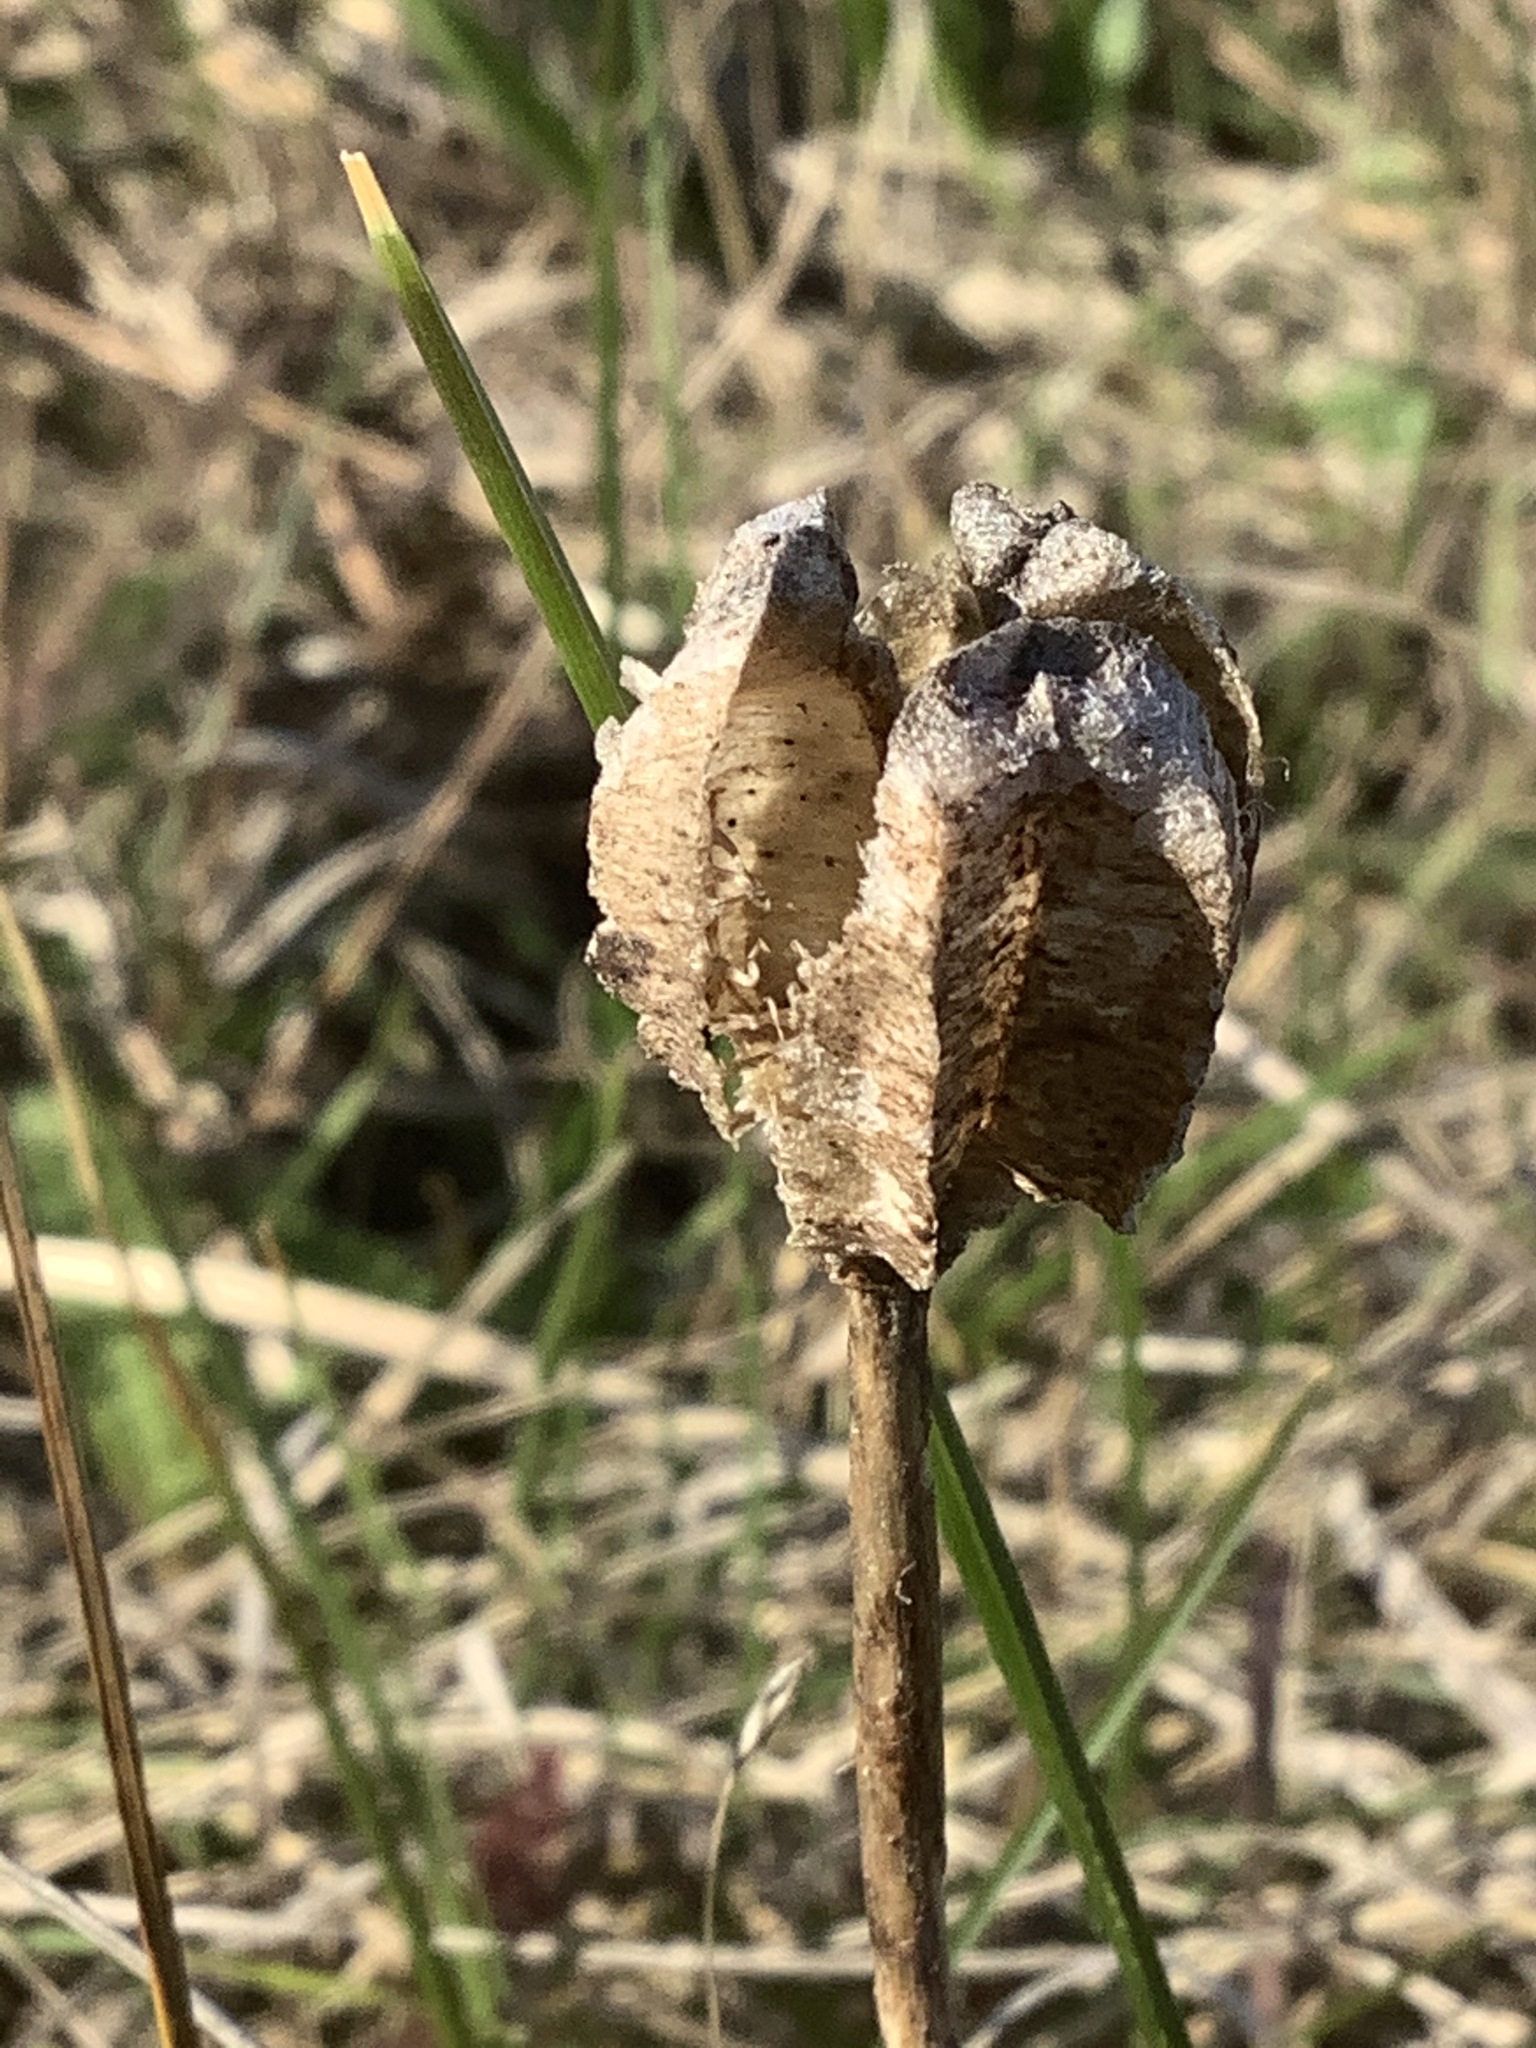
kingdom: Plantae
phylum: Tracheophyta
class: Liliopsida
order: Liliales
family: Liliaceae
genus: Fritillaria
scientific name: Fritillaria affinis
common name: Ojai fritillary
